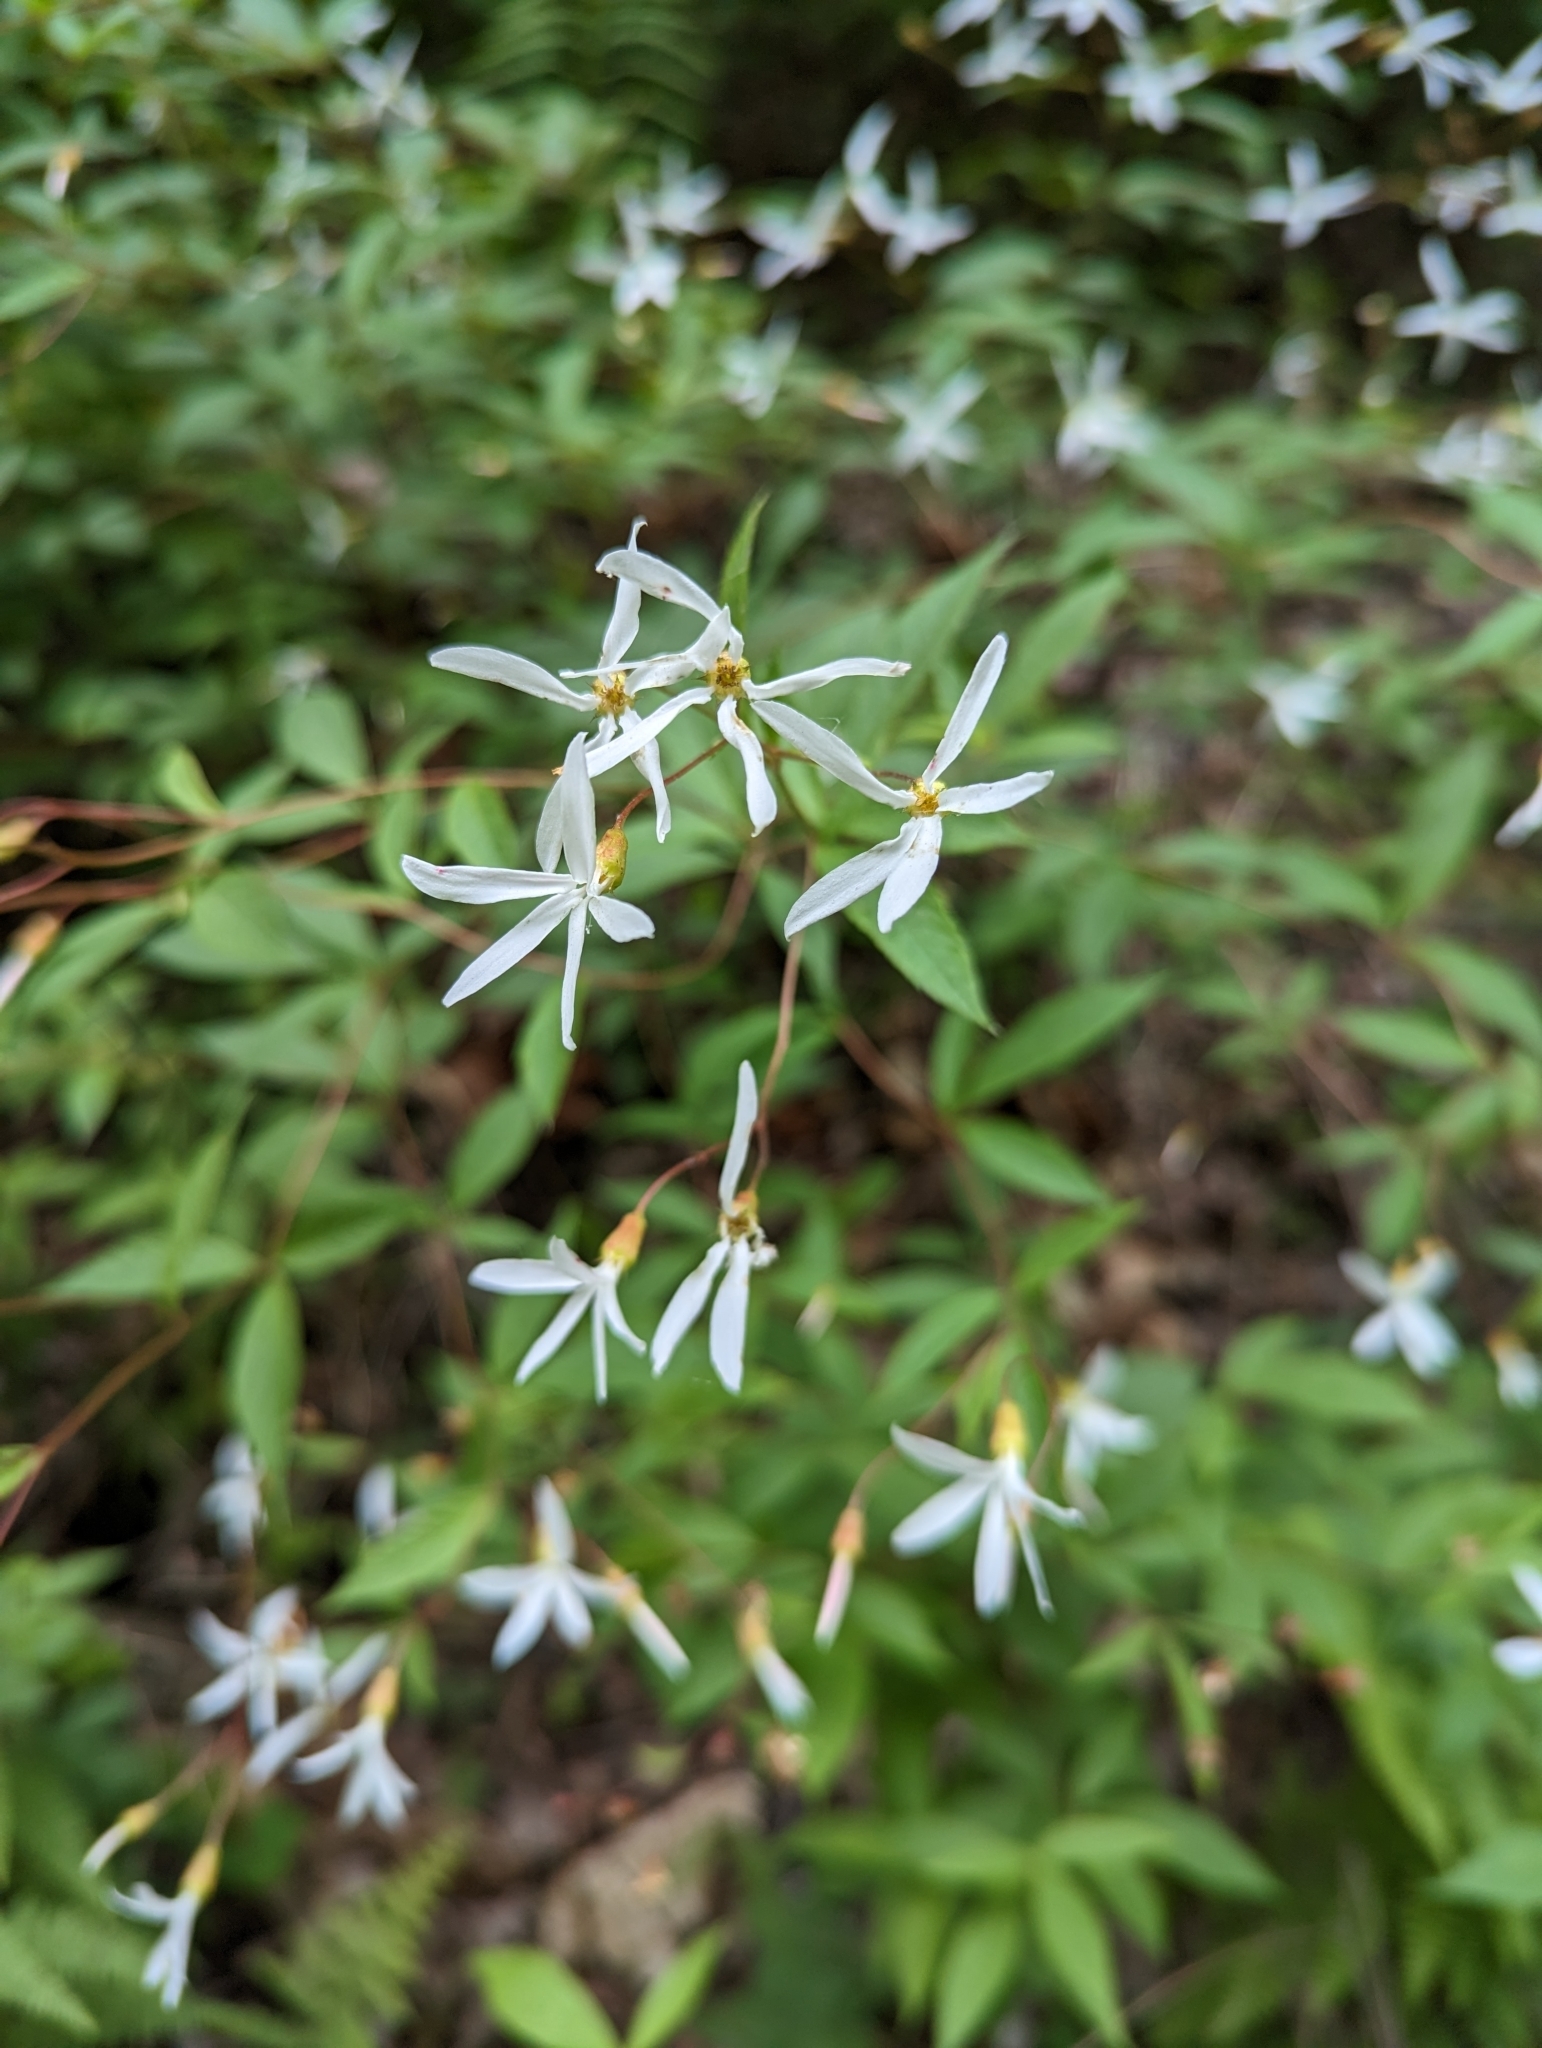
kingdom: Plantae
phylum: Tracheophyta
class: Magnoliopsida
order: Rosales
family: Rosaceae
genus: Gillenia
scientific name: Gillenia trifoliata
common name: Bowman's-root
